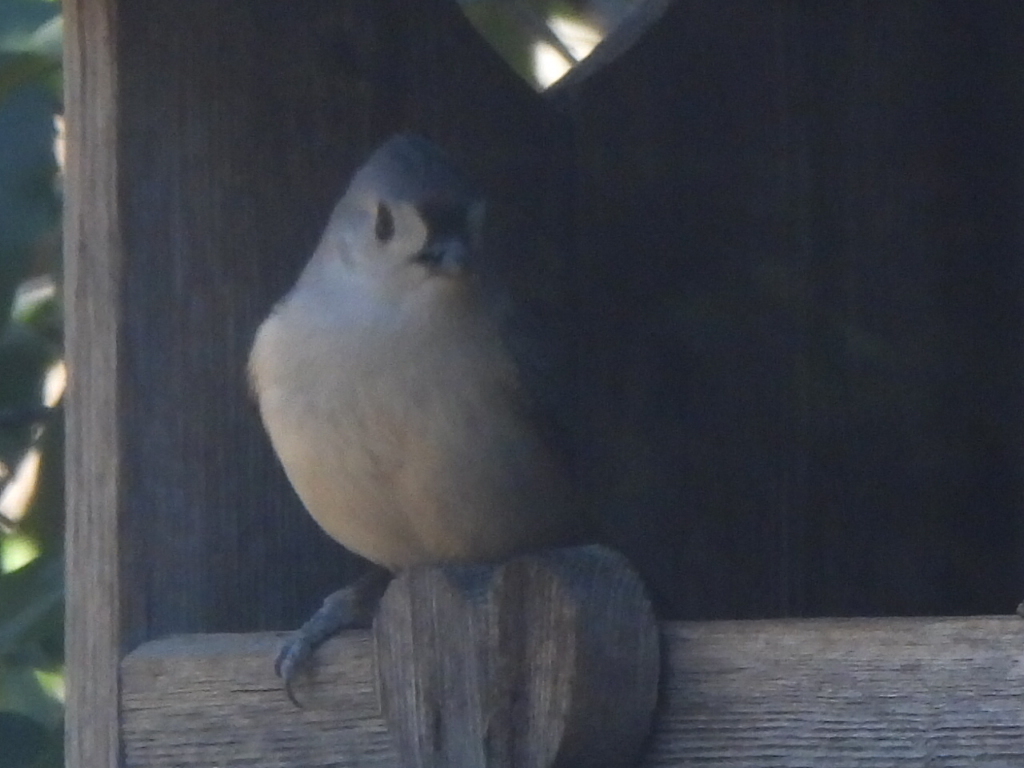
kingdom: Animalia
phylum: Chordata
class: Aves
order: Passeriformes
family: Paridae
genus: Baeolophus
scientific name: Baeolophus bicolor
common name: Tufted titmouse
